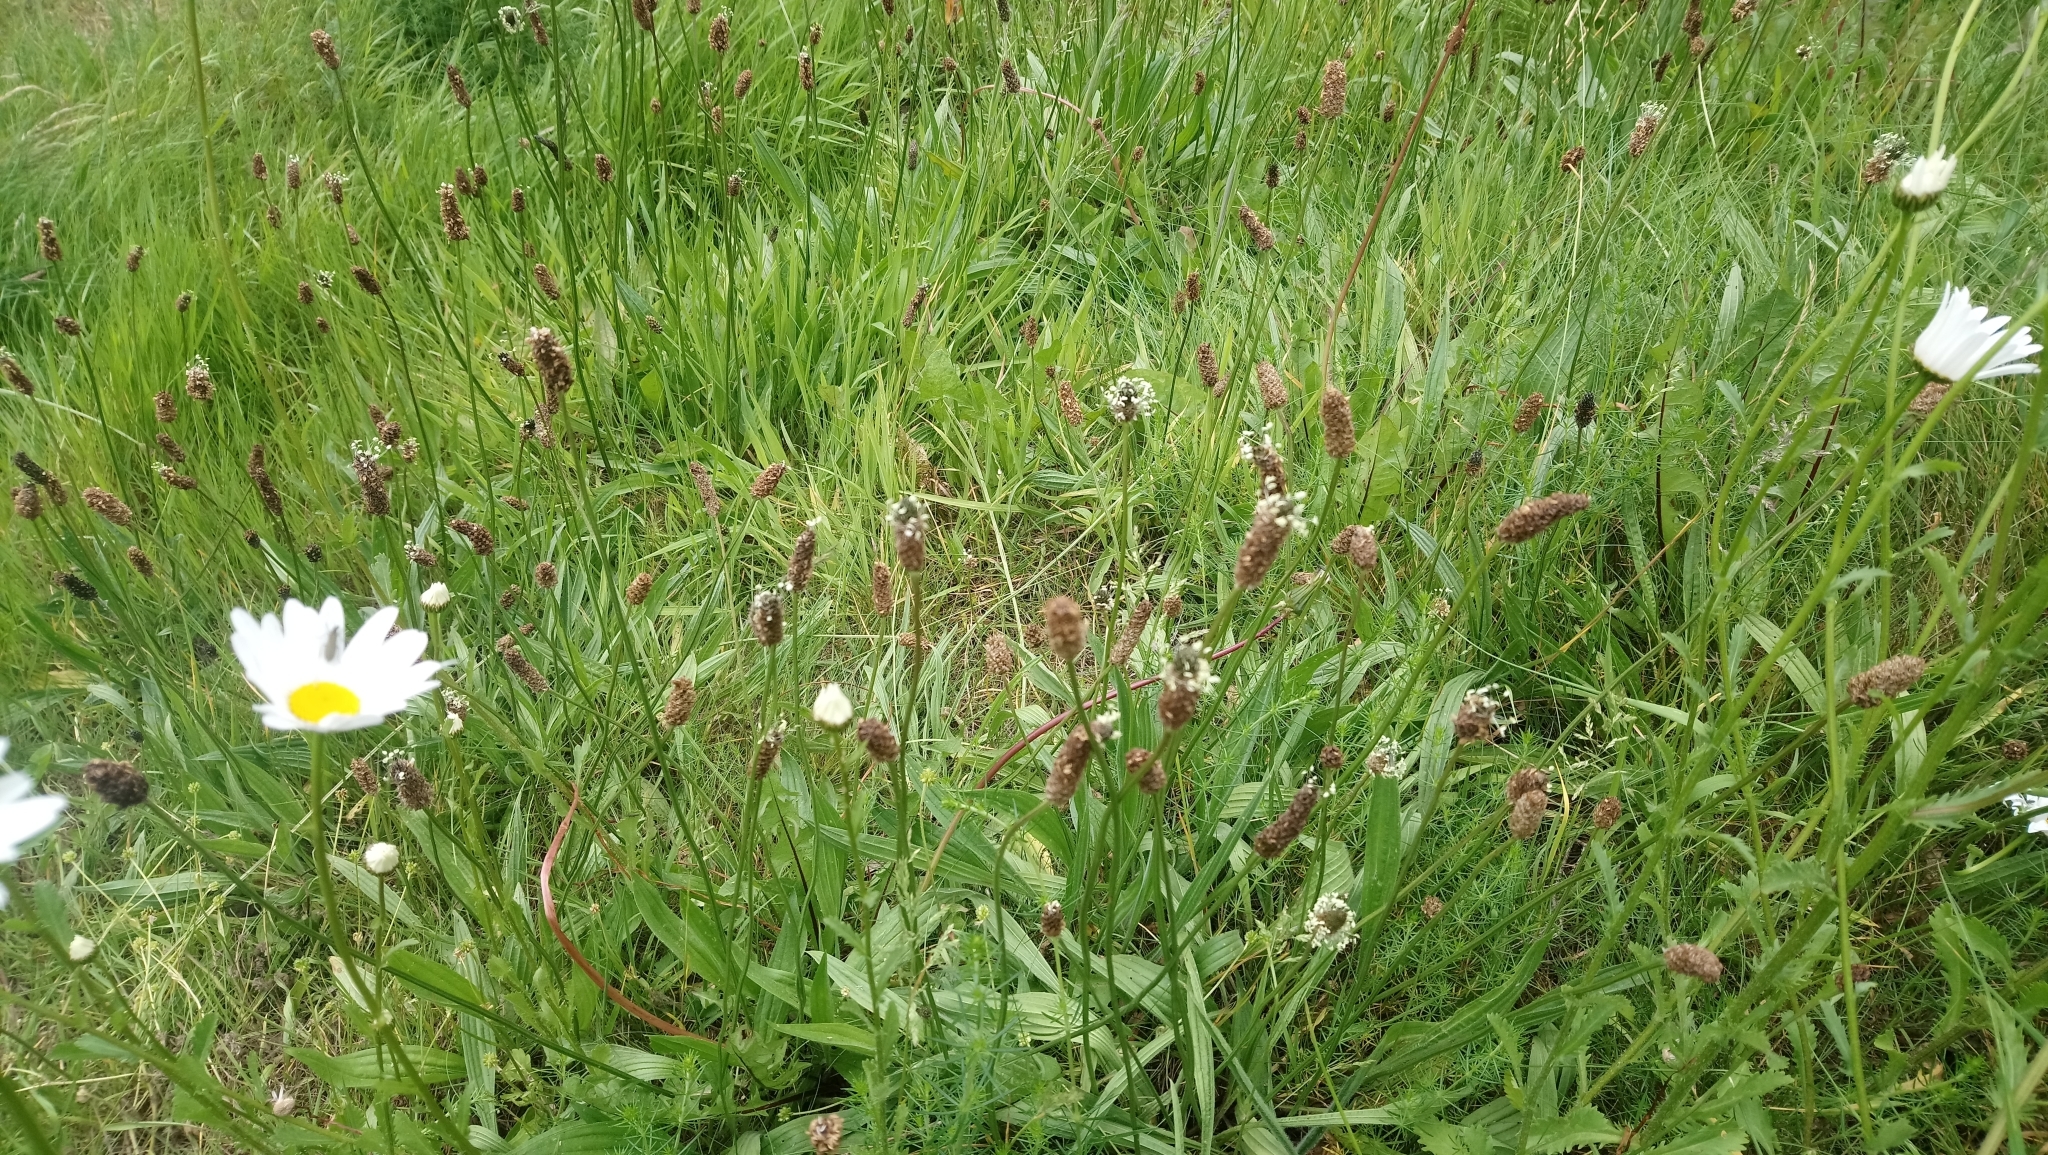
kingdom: Plantae
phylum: Tracheophyta
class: Magnoliopsida
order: Lamiales
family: Plantaginaceae
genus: Plantago
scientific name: Plantago lanceolata
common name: Ribwort plantain
